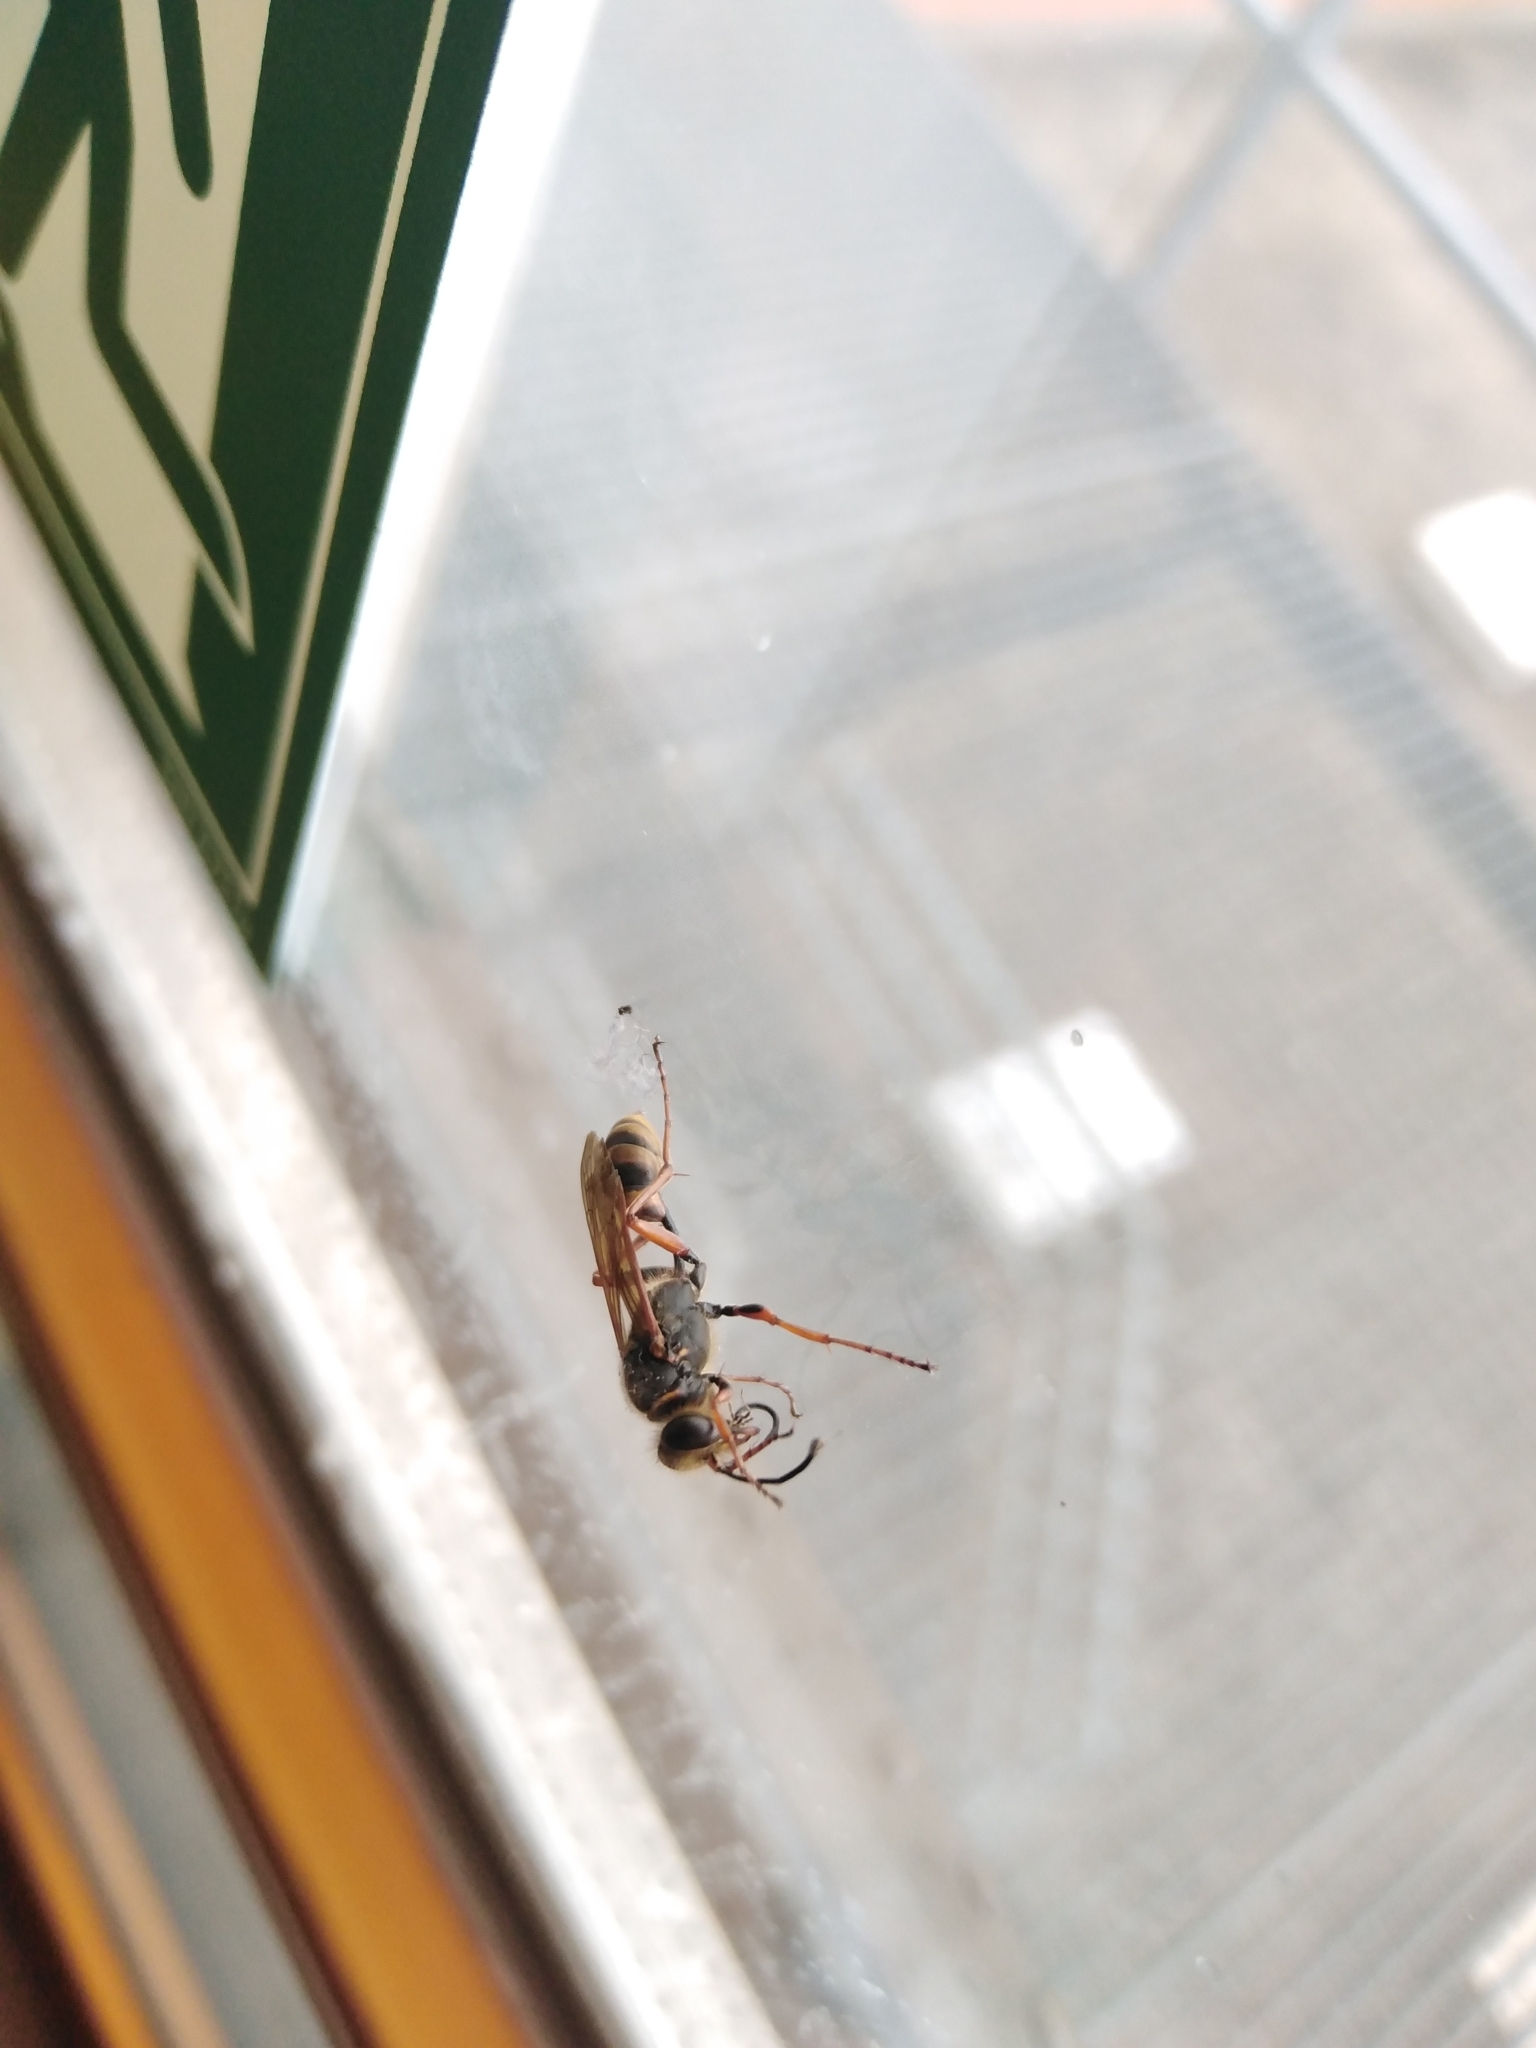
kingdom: Animalia
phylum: Arthropoda
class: Insecta
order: Hymenoptera
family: Sphecidae
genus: Sceliphron
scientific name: Sceliphron curvatum
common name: Pèlopèe
